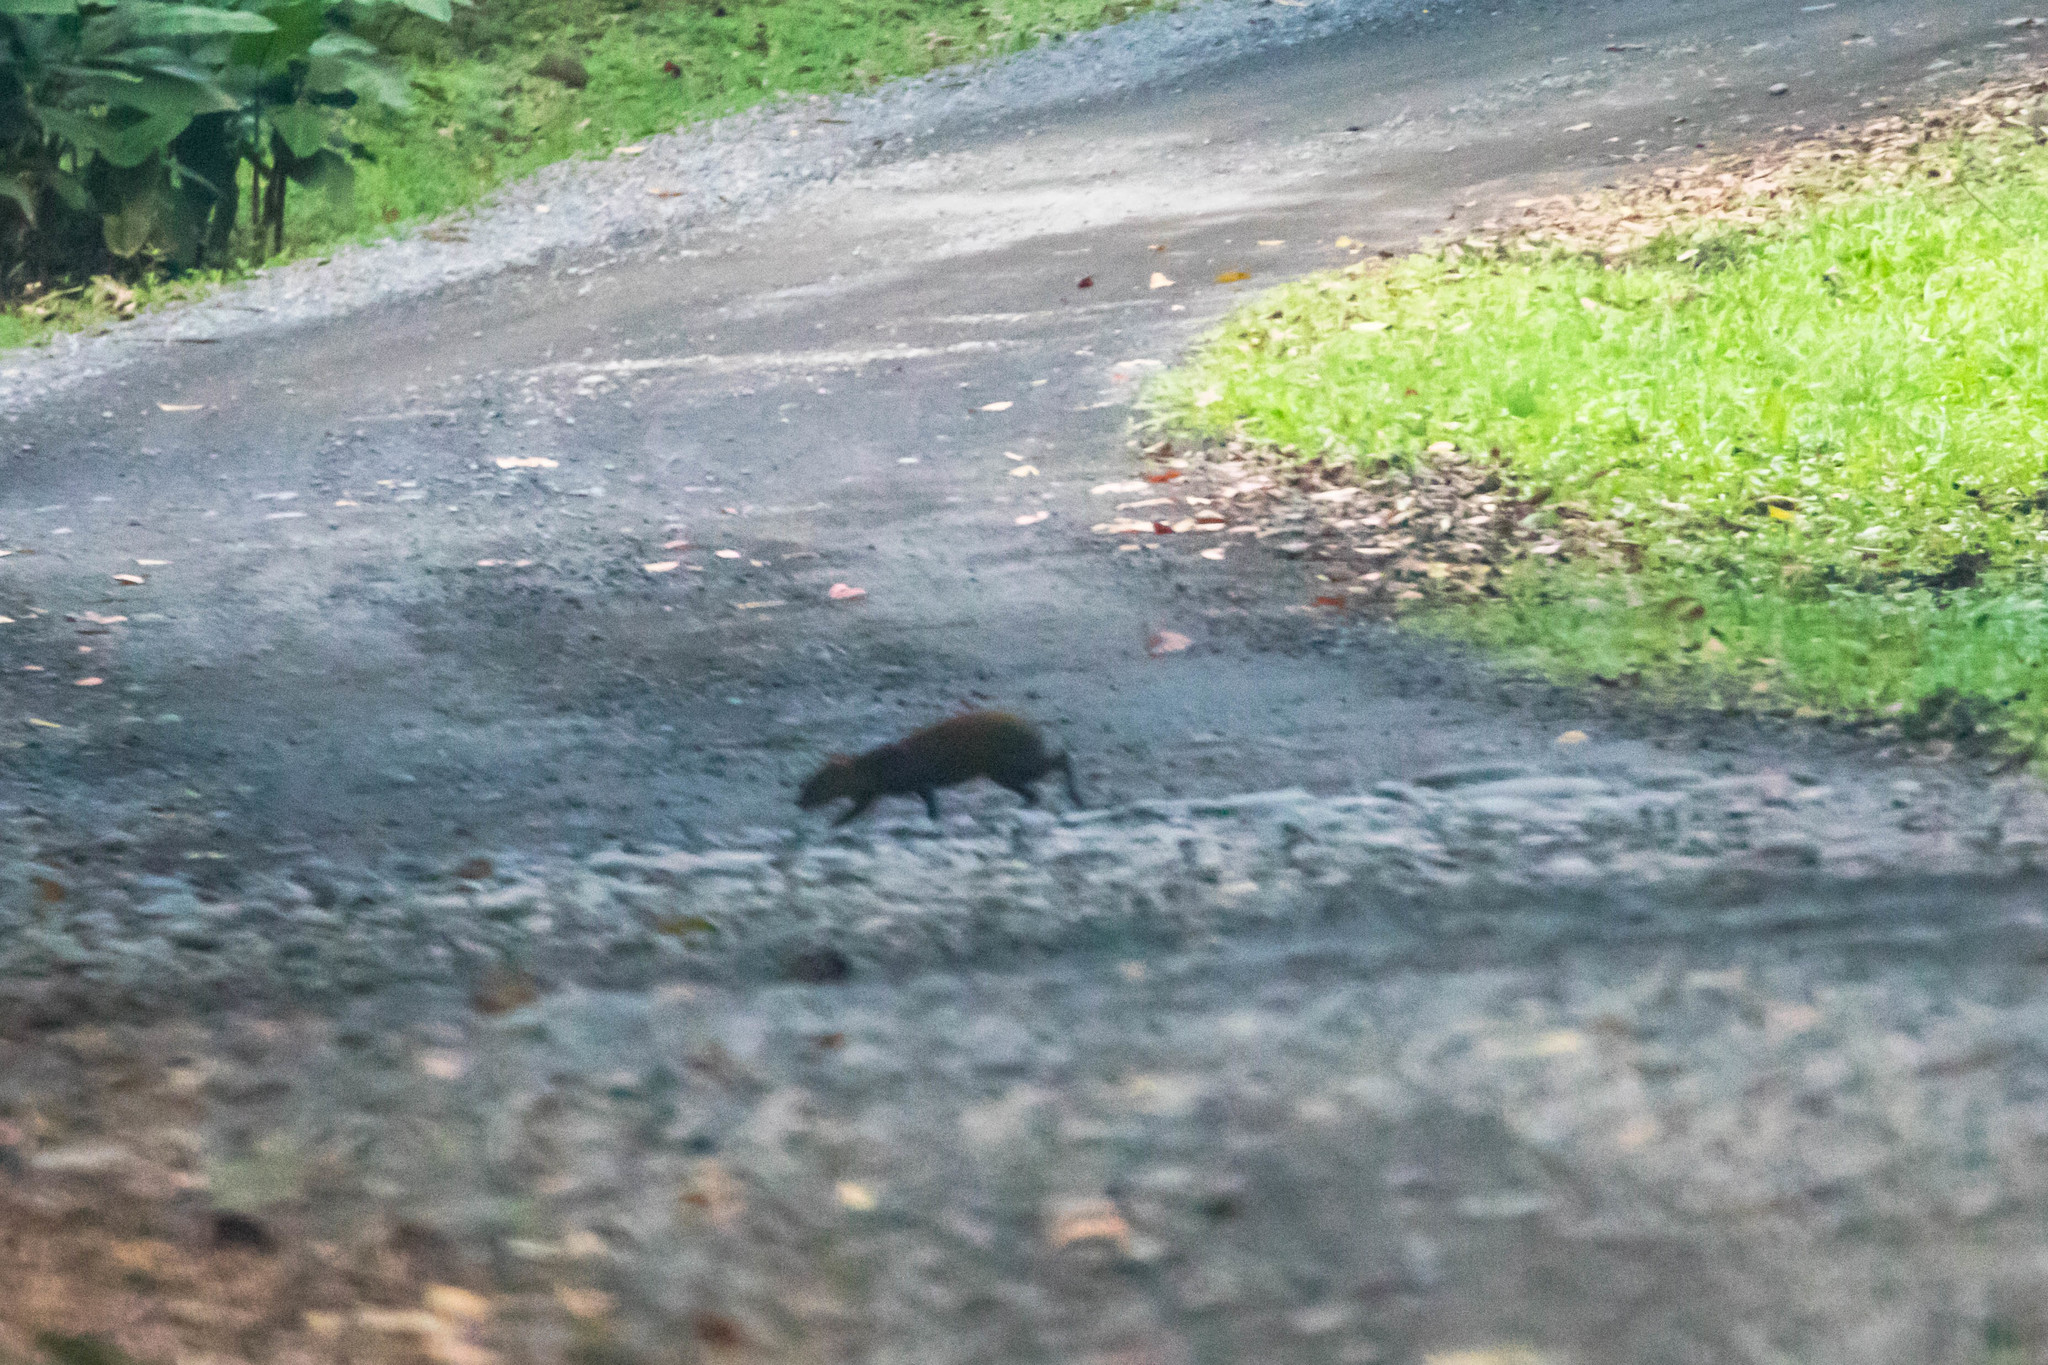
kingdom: Animalia
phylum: Chordata
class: Mammalia
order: Rodentia
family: Dasyproctidae
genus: Dasyprocta
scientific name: Dasyprocta punctata
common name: Central american agouti
